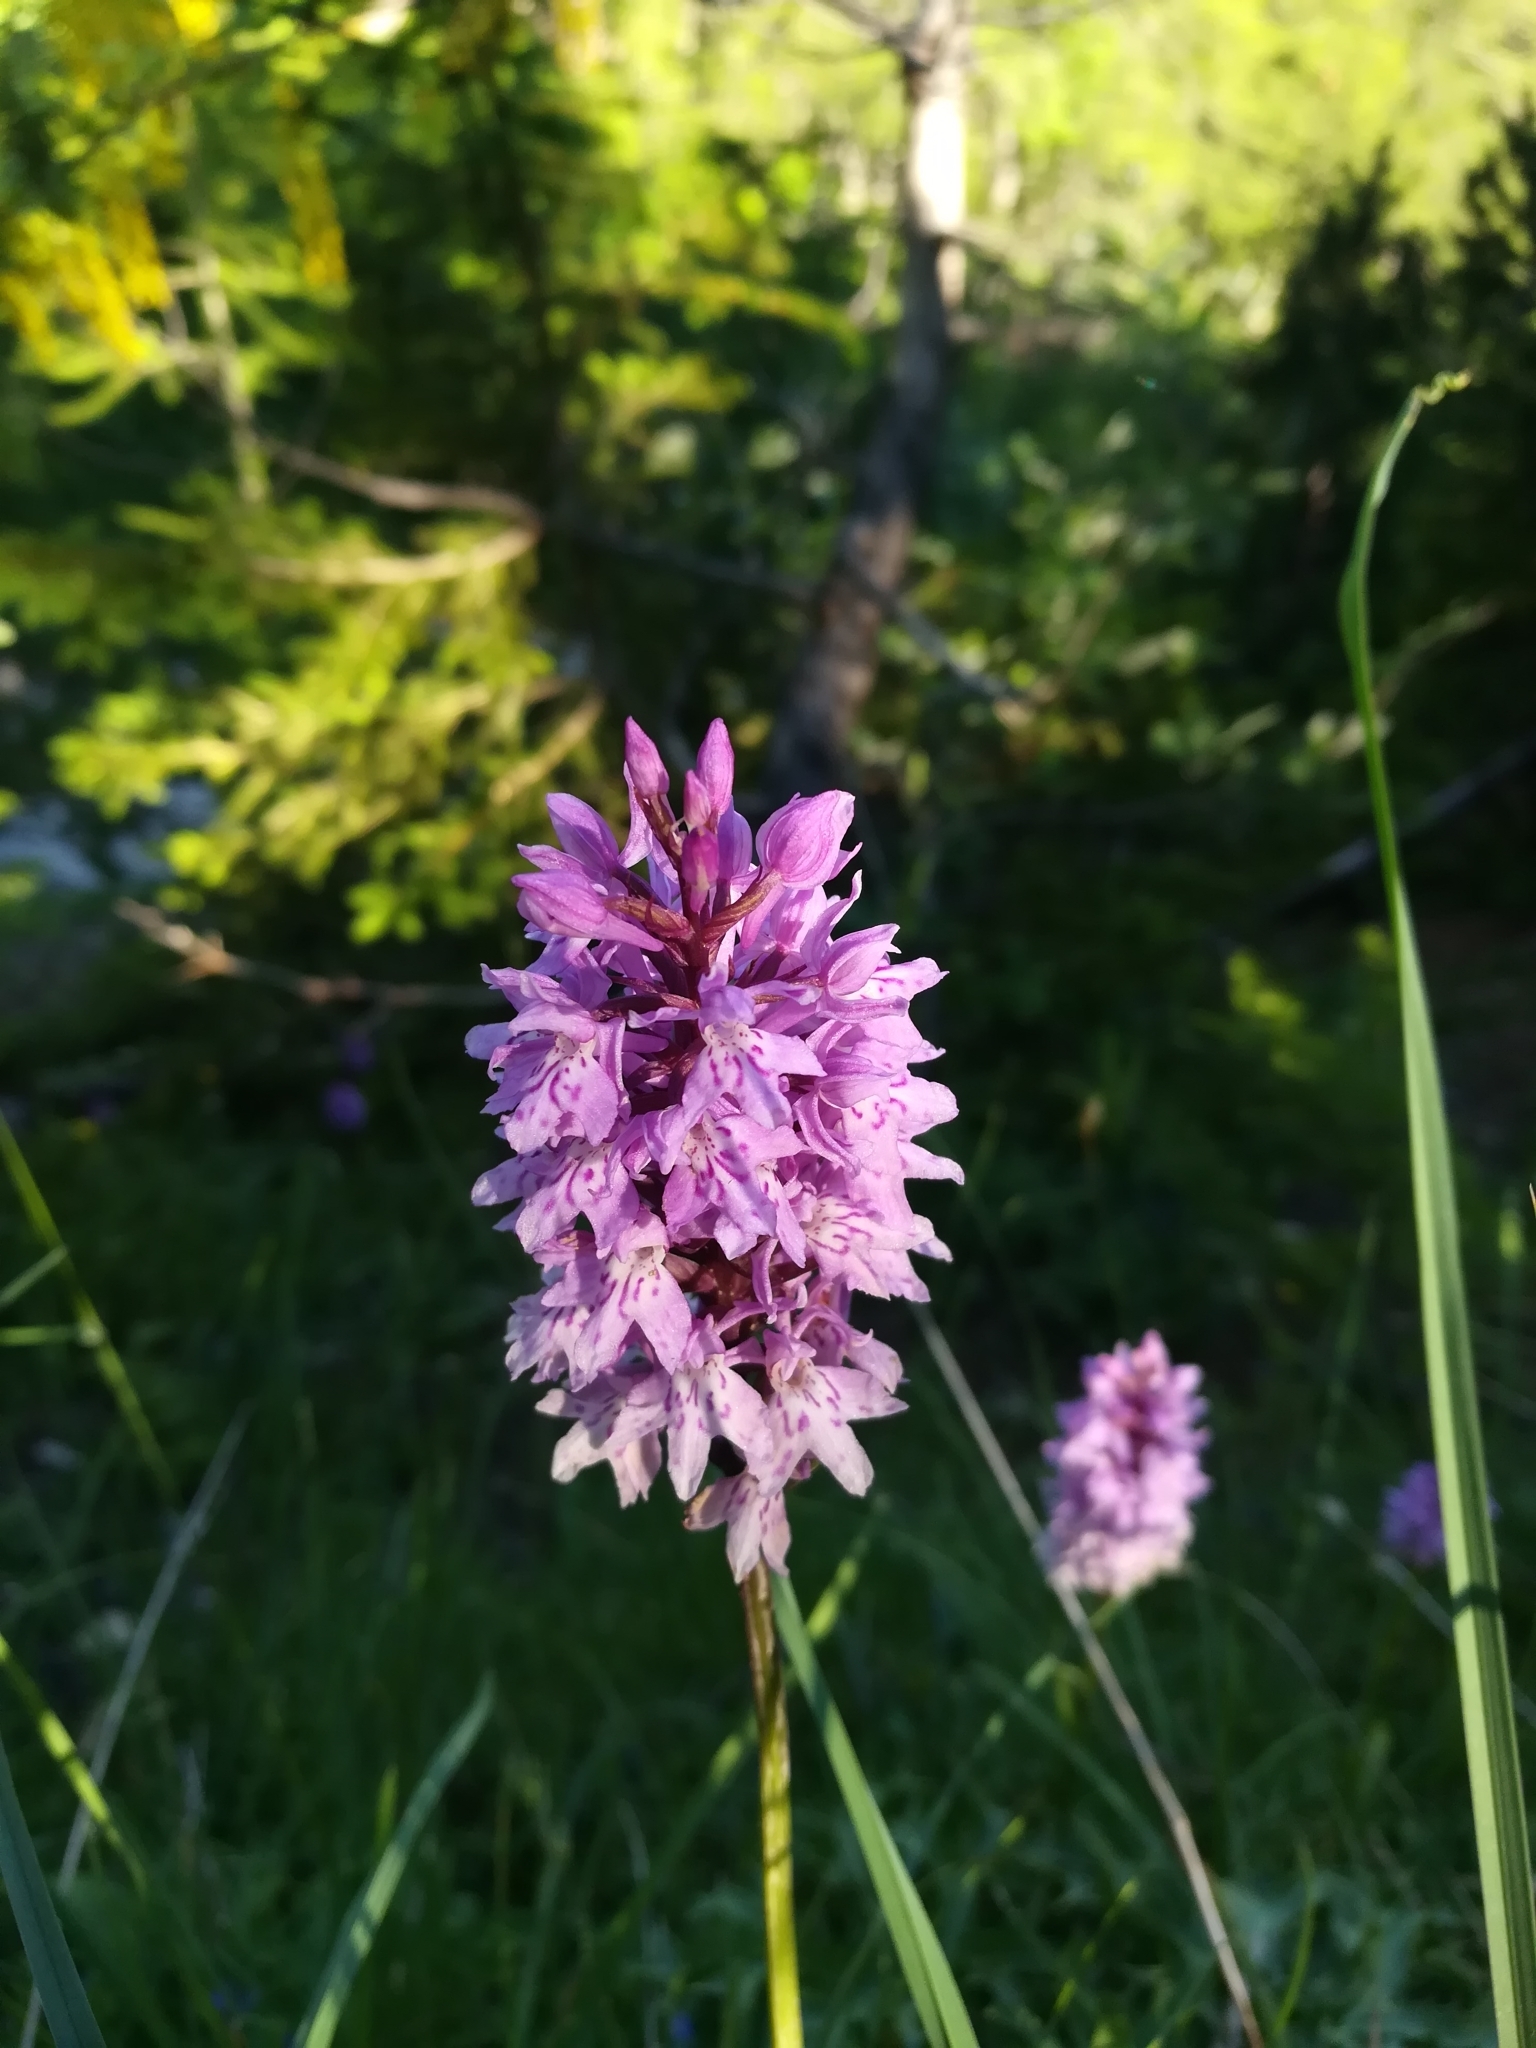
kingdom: Plantae
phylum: Tracheophyta
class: Liliopsida
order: Asparagales
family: Orchidaceae
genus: Dactylorhiza
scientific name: Dactylorhiza maculata
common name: Heath spotted-orchid
